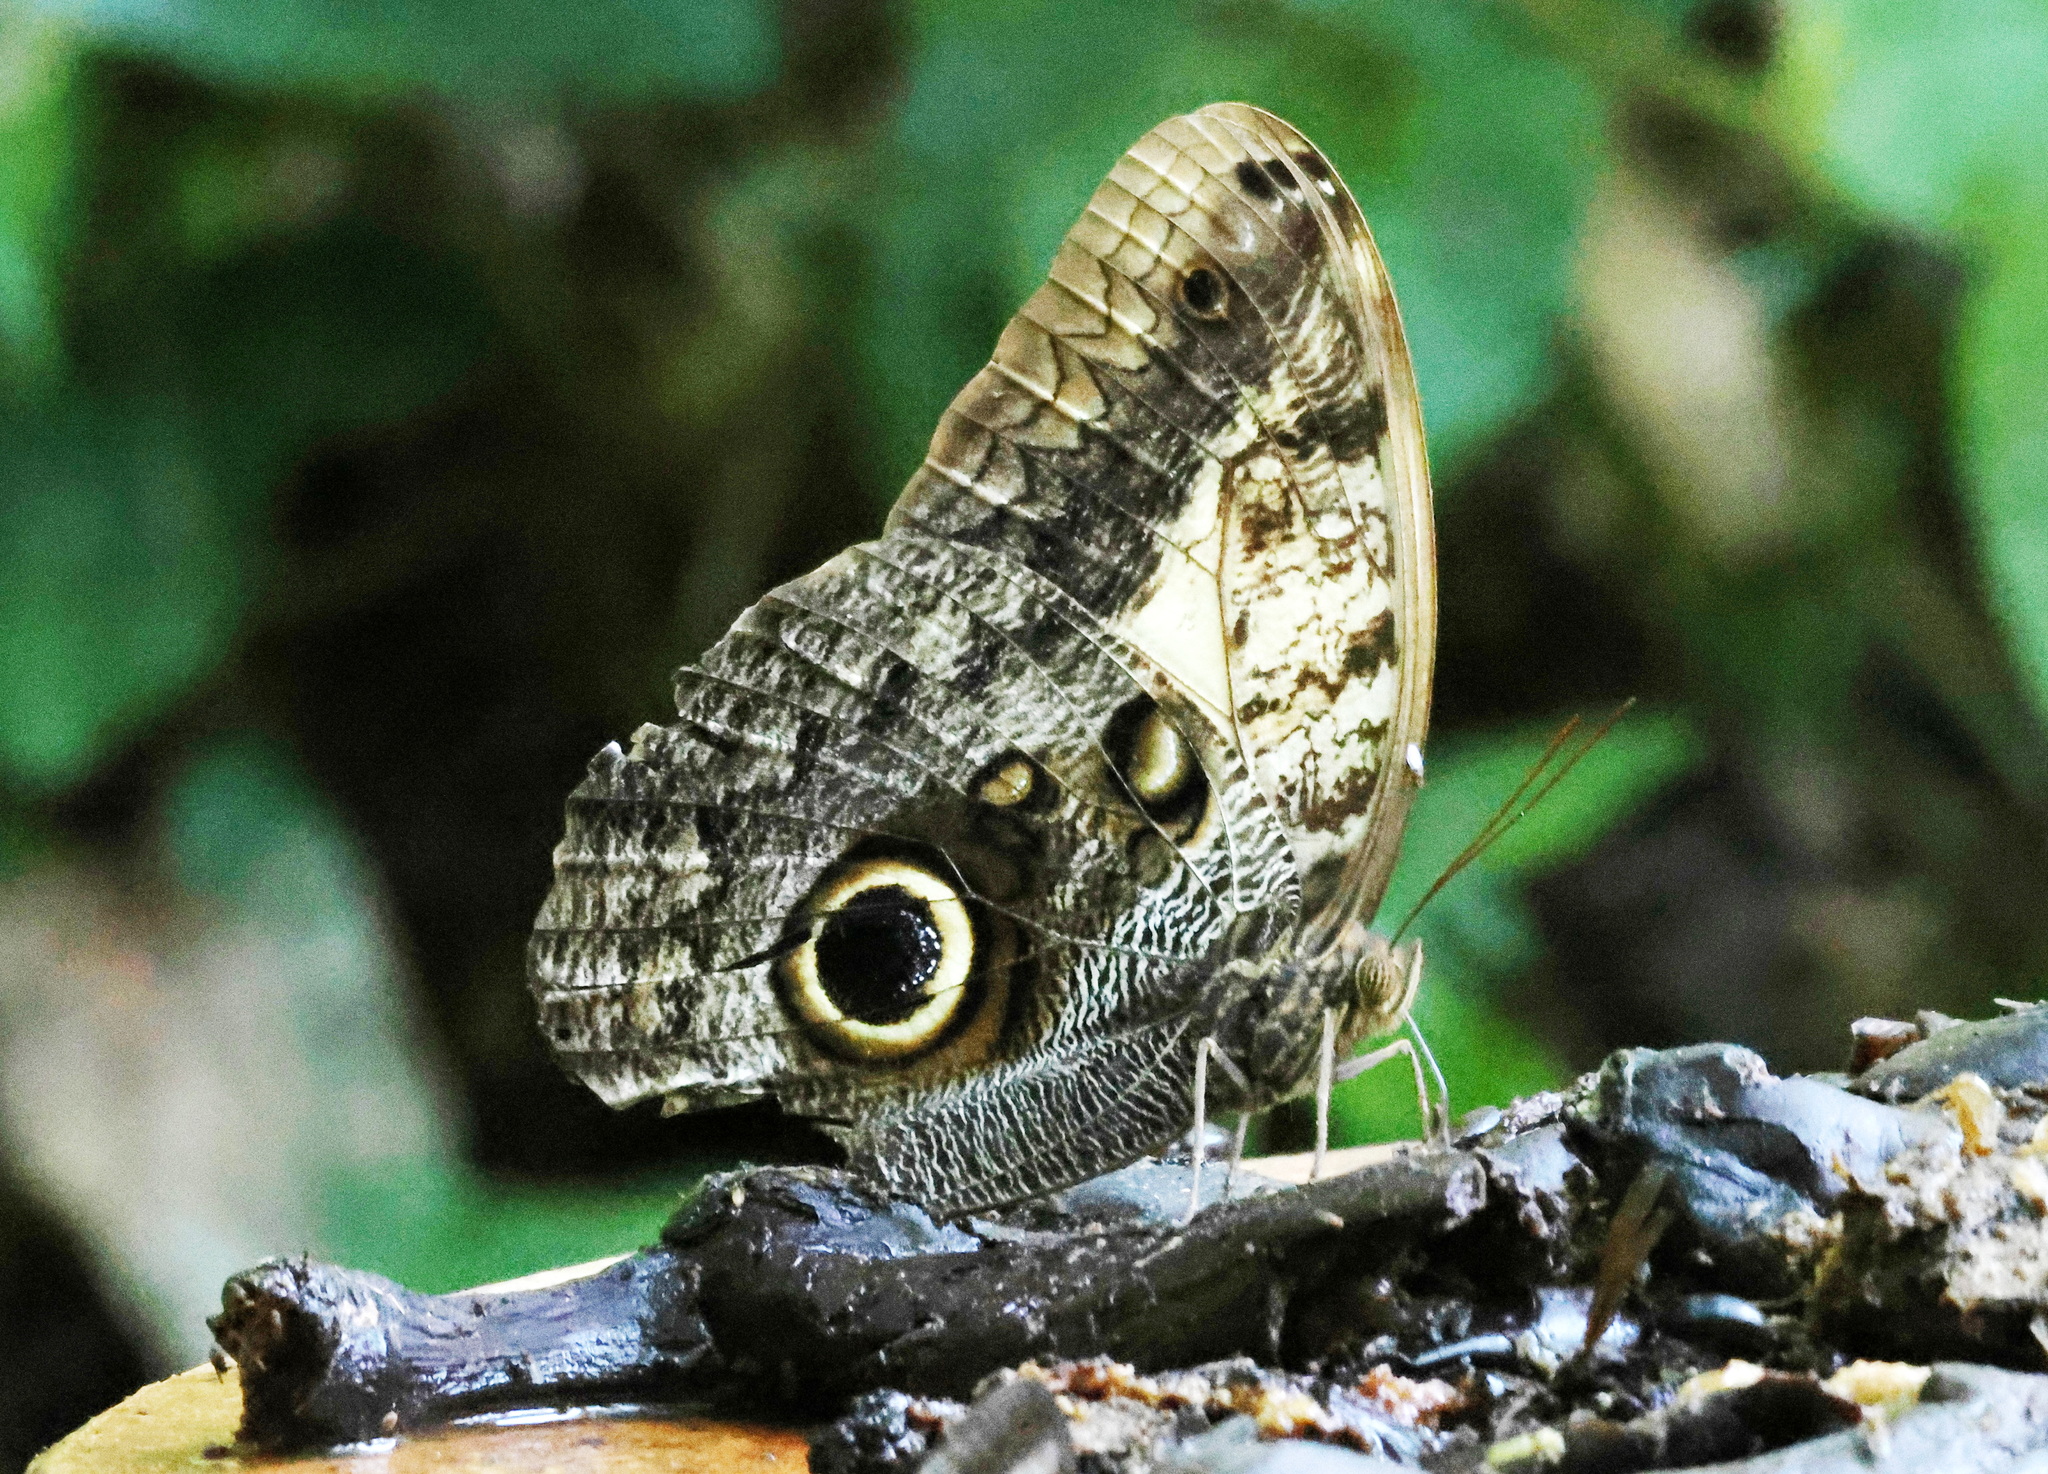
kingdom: Animalia
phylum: Arthropoda
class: Insecta
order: Lepidoptera
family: Nymphalidae
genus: Caligo
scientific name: Caligo telamonius
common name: Pale owl-butterfly
